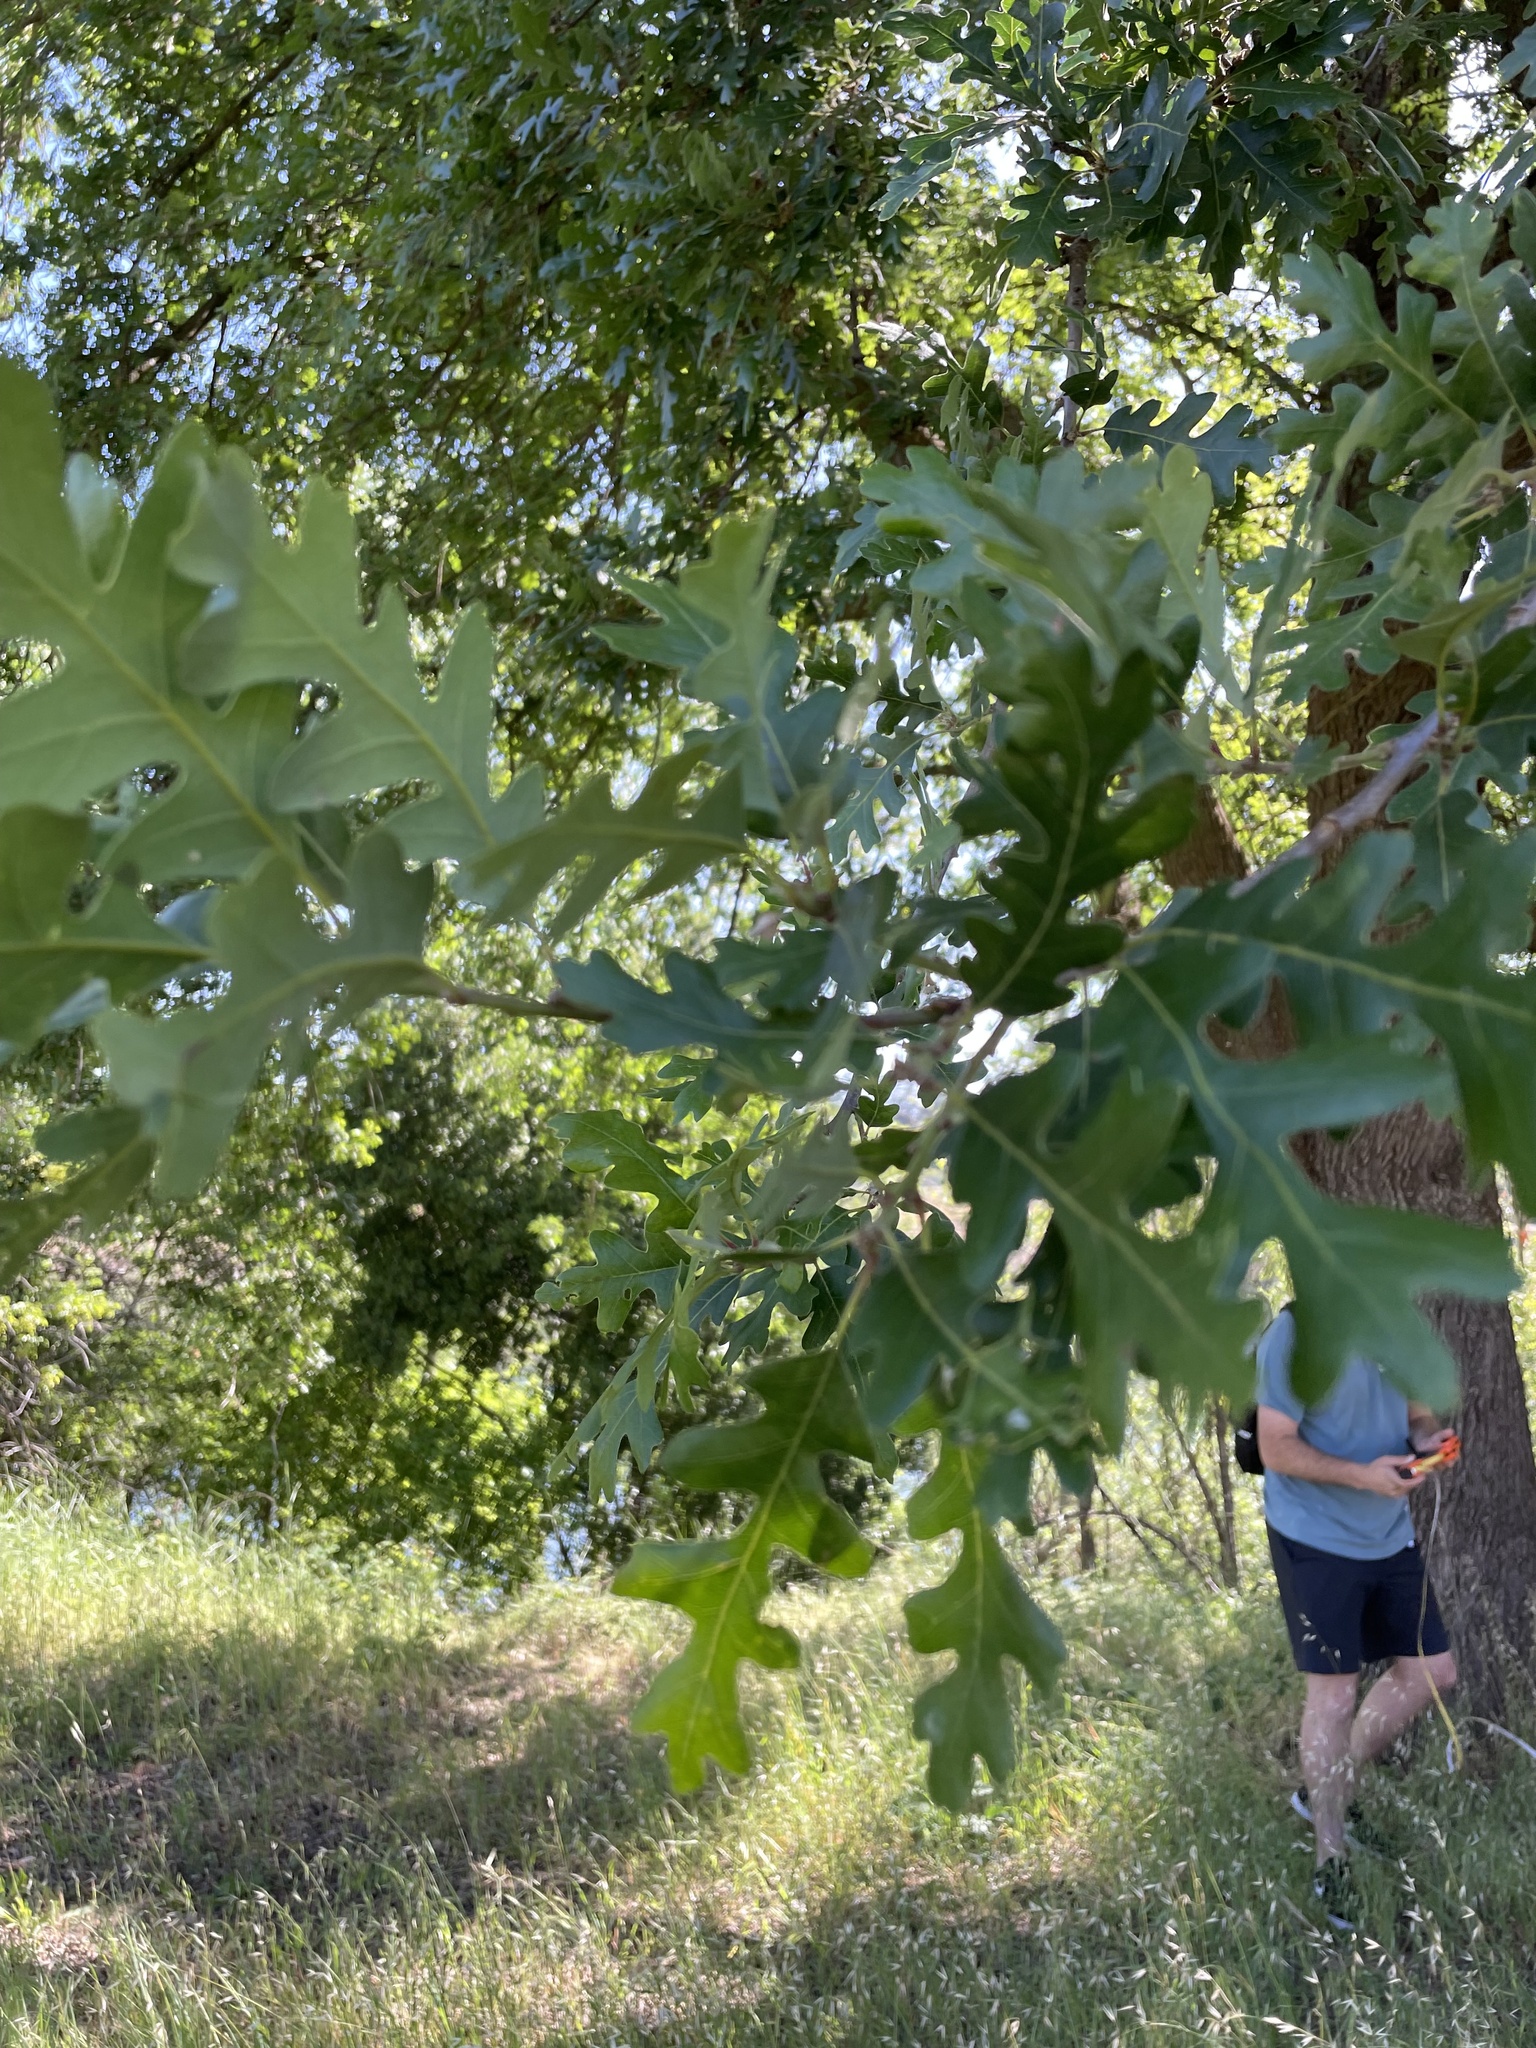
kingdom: Plantae
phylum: Tracheophyta
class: Magnoliopsida
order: Fagales
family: Fagaceae
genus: Quercus
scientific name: Quercus lobata
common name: Valley oak
